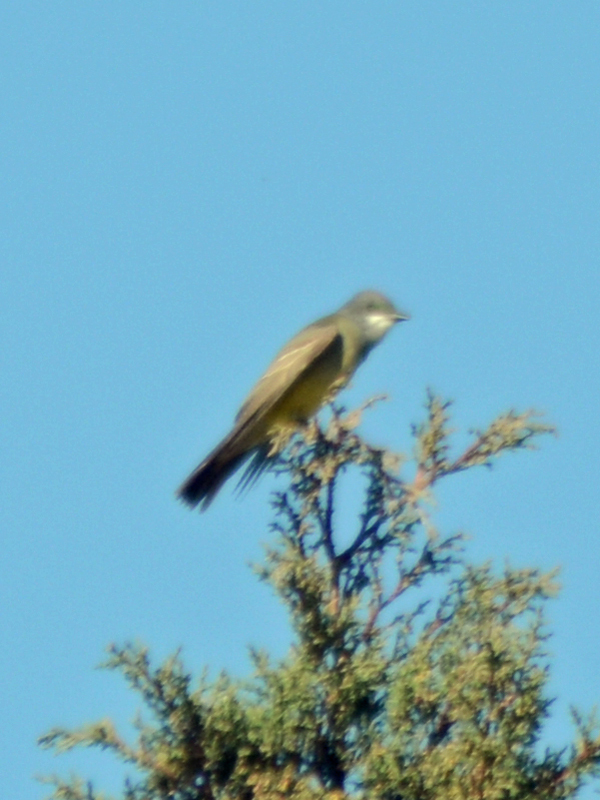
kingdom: Animalia
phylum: Chordata
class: Aves
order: Passeriformes
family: Tyrannidae
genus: Tyrannus
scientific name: Tyrannus vociferans
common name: Cassin's kingbird
